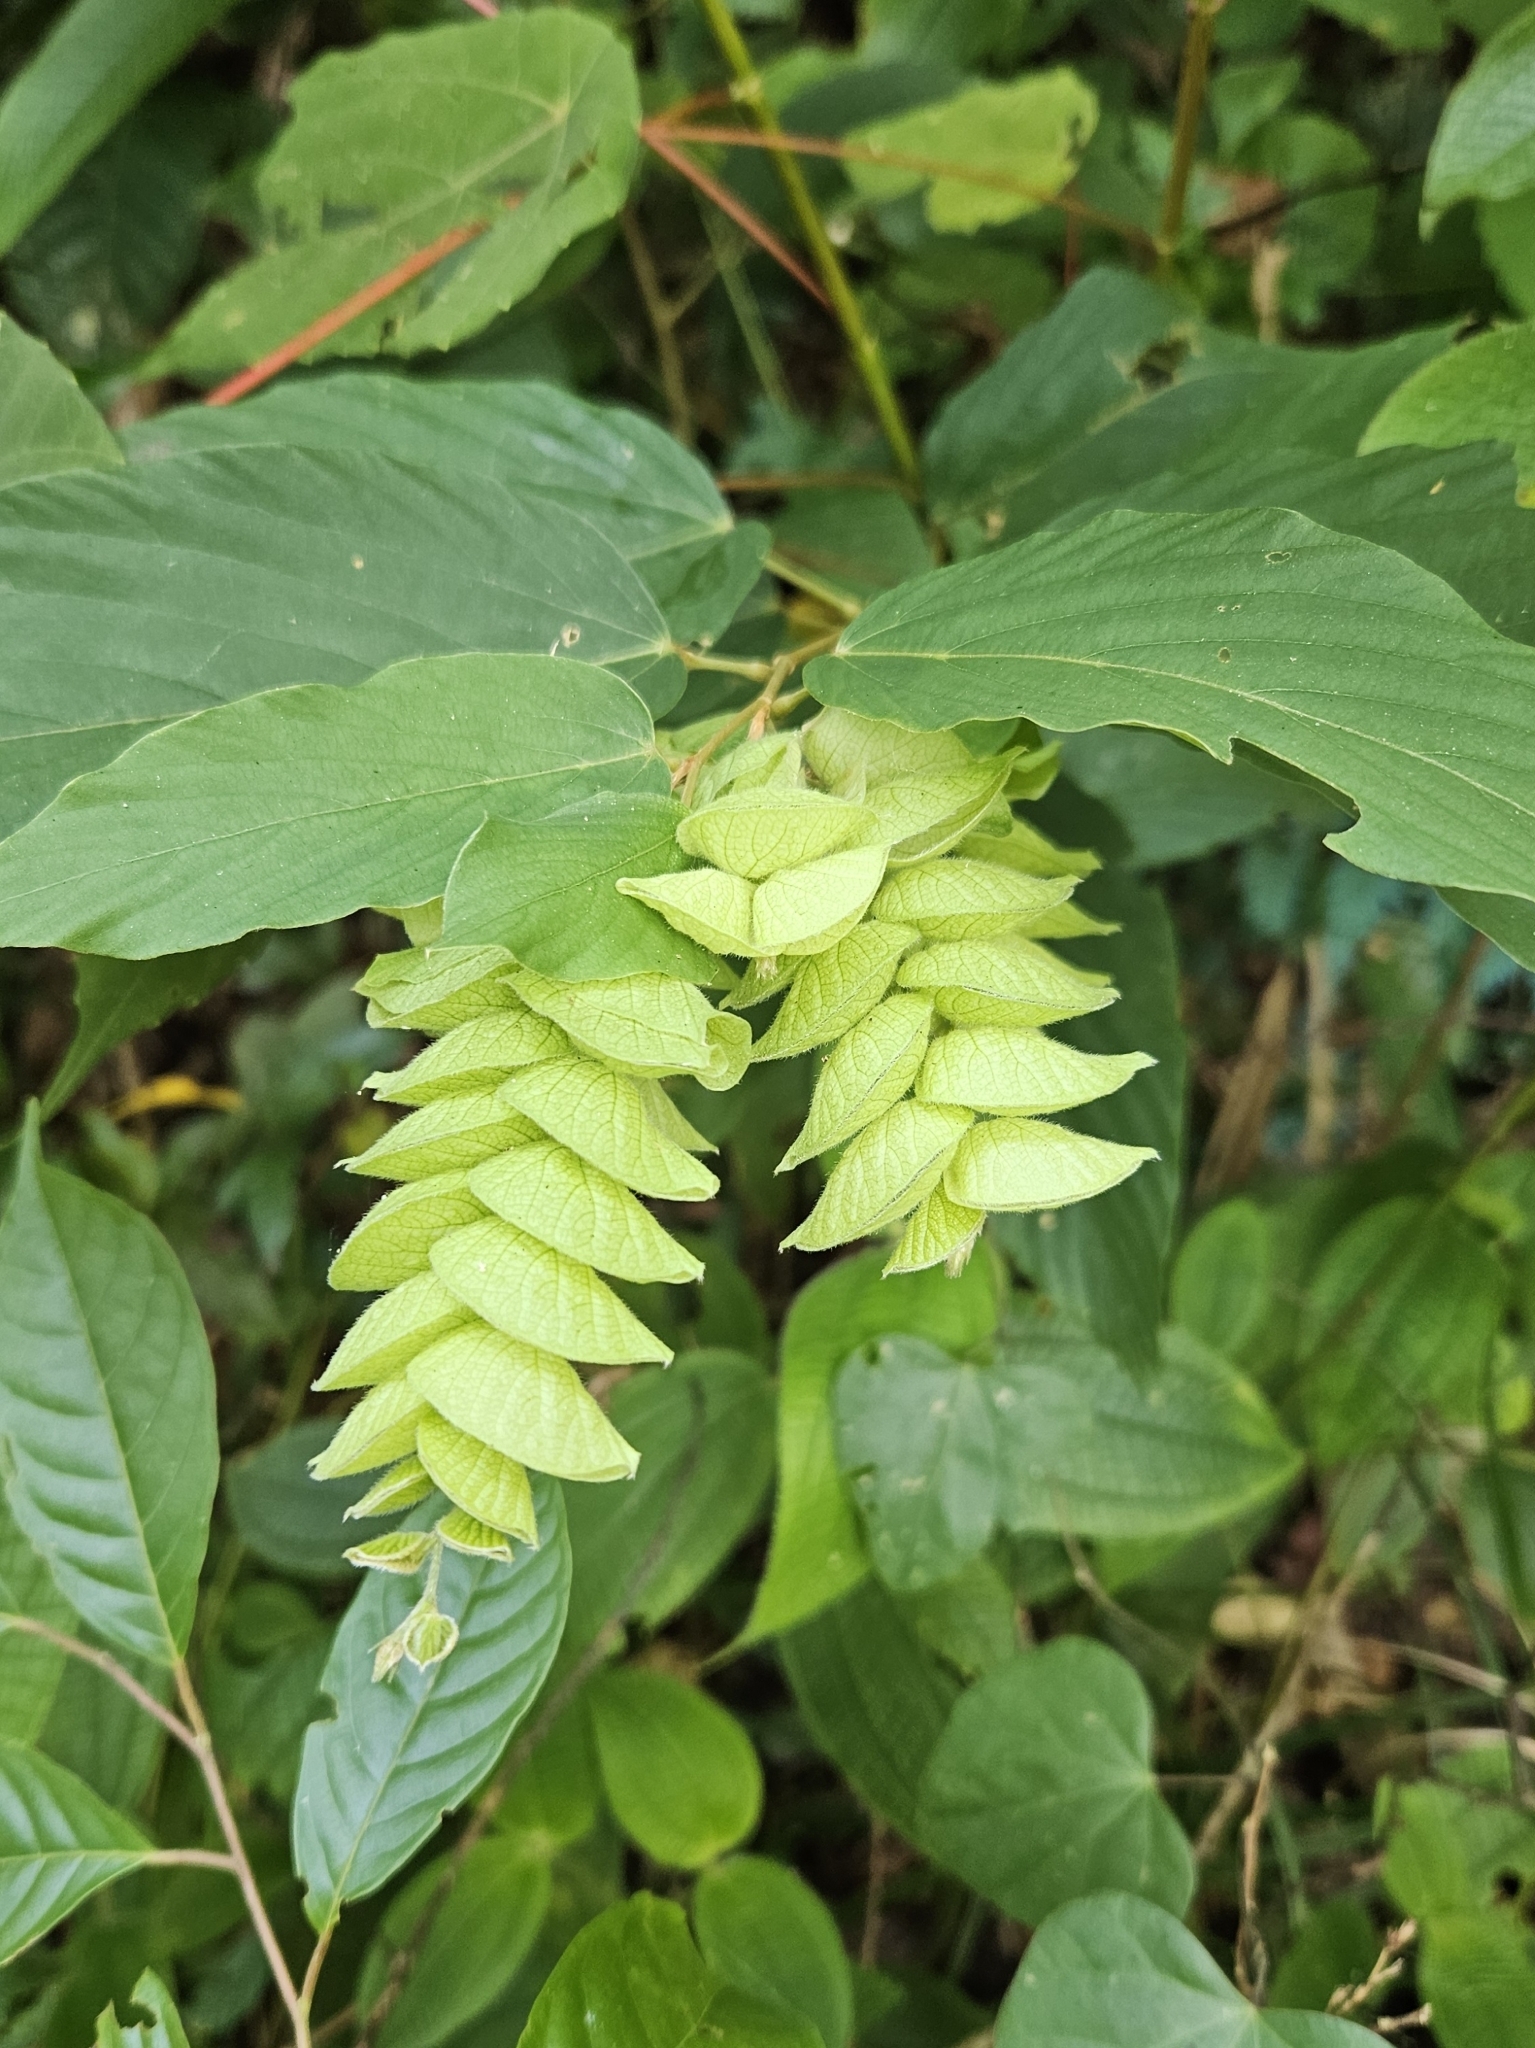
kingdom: Plantae
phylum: Tracheophyta
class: Magnoliopsida
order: Fabales
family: Fabaceae
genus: Flemingia
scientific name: Flemingia strobilifera
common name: Wild hops
